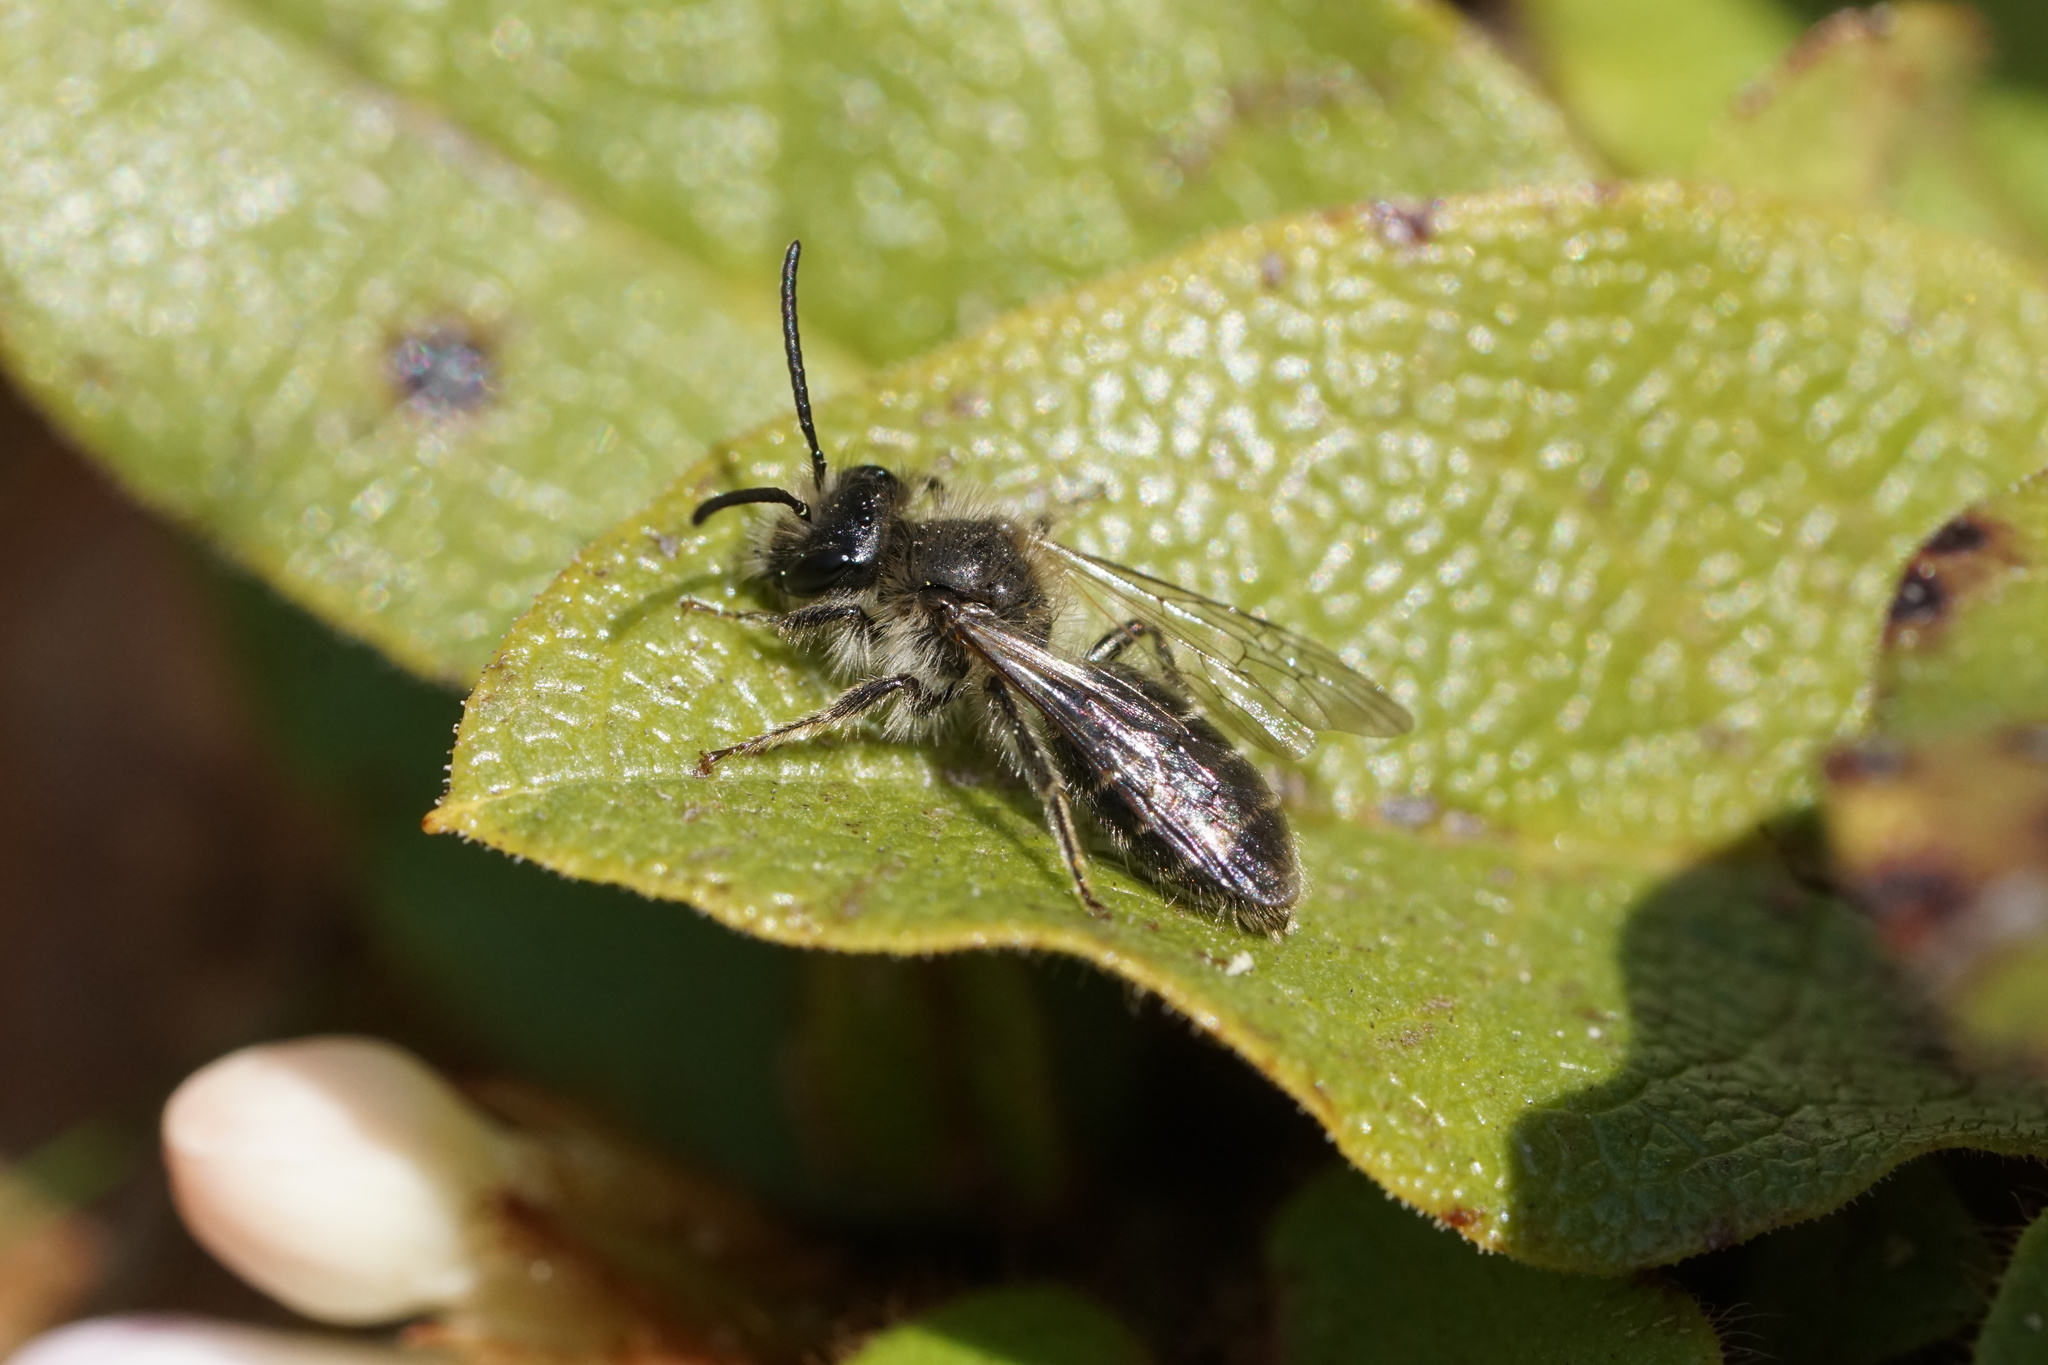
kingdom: Animalia
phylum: Arthropoda
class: Insecta
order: Hymenoptera
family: Andrenidae
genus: Andrena
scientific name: Andrena bradleyi
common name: Bradley's mining bee
